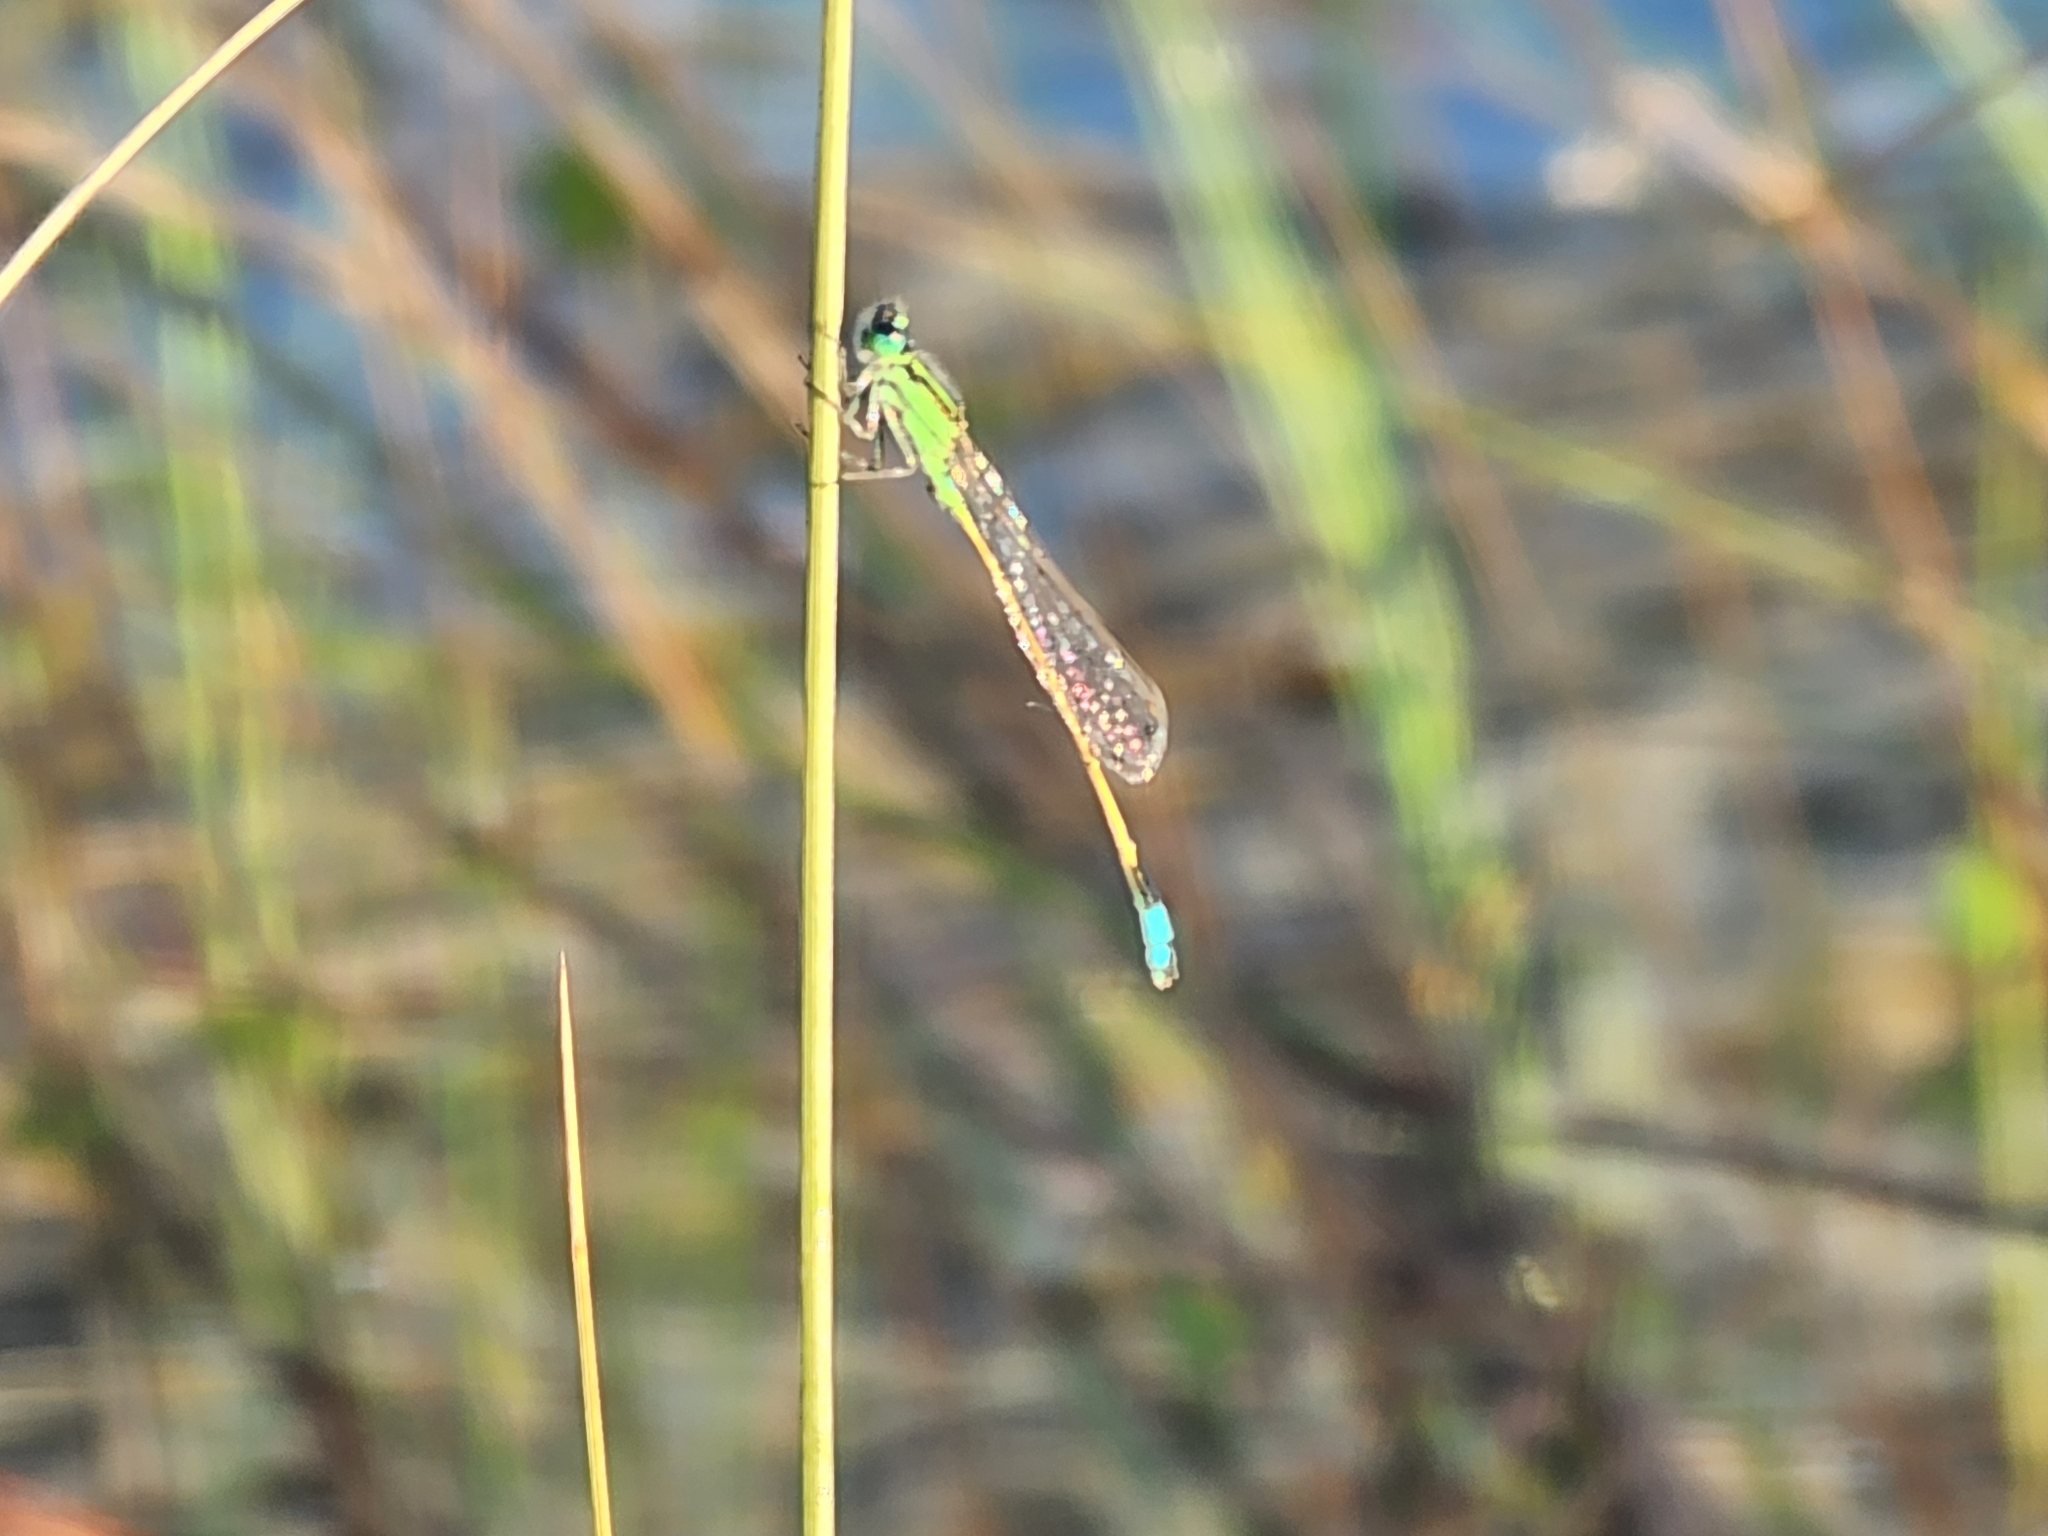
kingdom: Animalia
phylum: Arthropoda
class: Insecta
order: Odonata
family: Coenagrionidae
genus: Ischnura
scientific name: Ischnura ramburii
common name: Rambur's forktail
